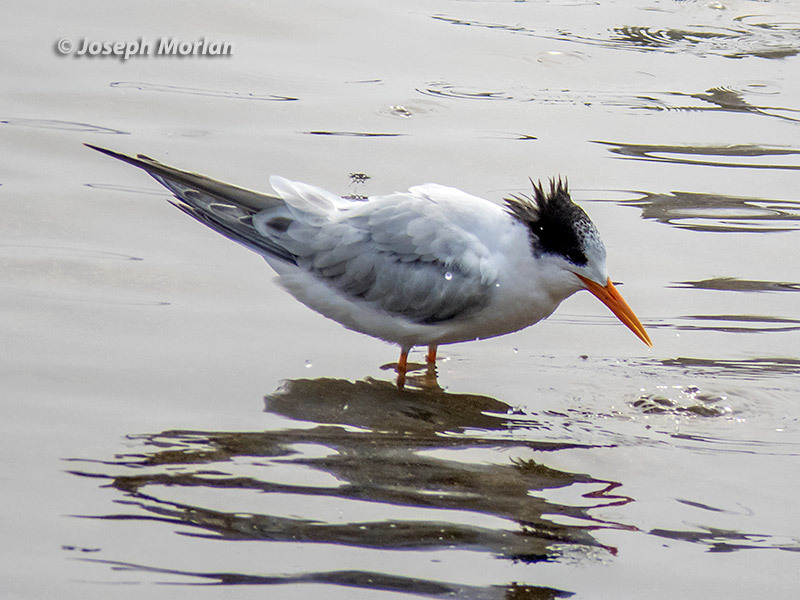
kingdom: Animalia
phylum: Chordata
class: Aves
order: Charadriiformes
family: Laridae
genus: Thalasseus
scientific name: Thalasseus elegans
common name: Elegant tern
